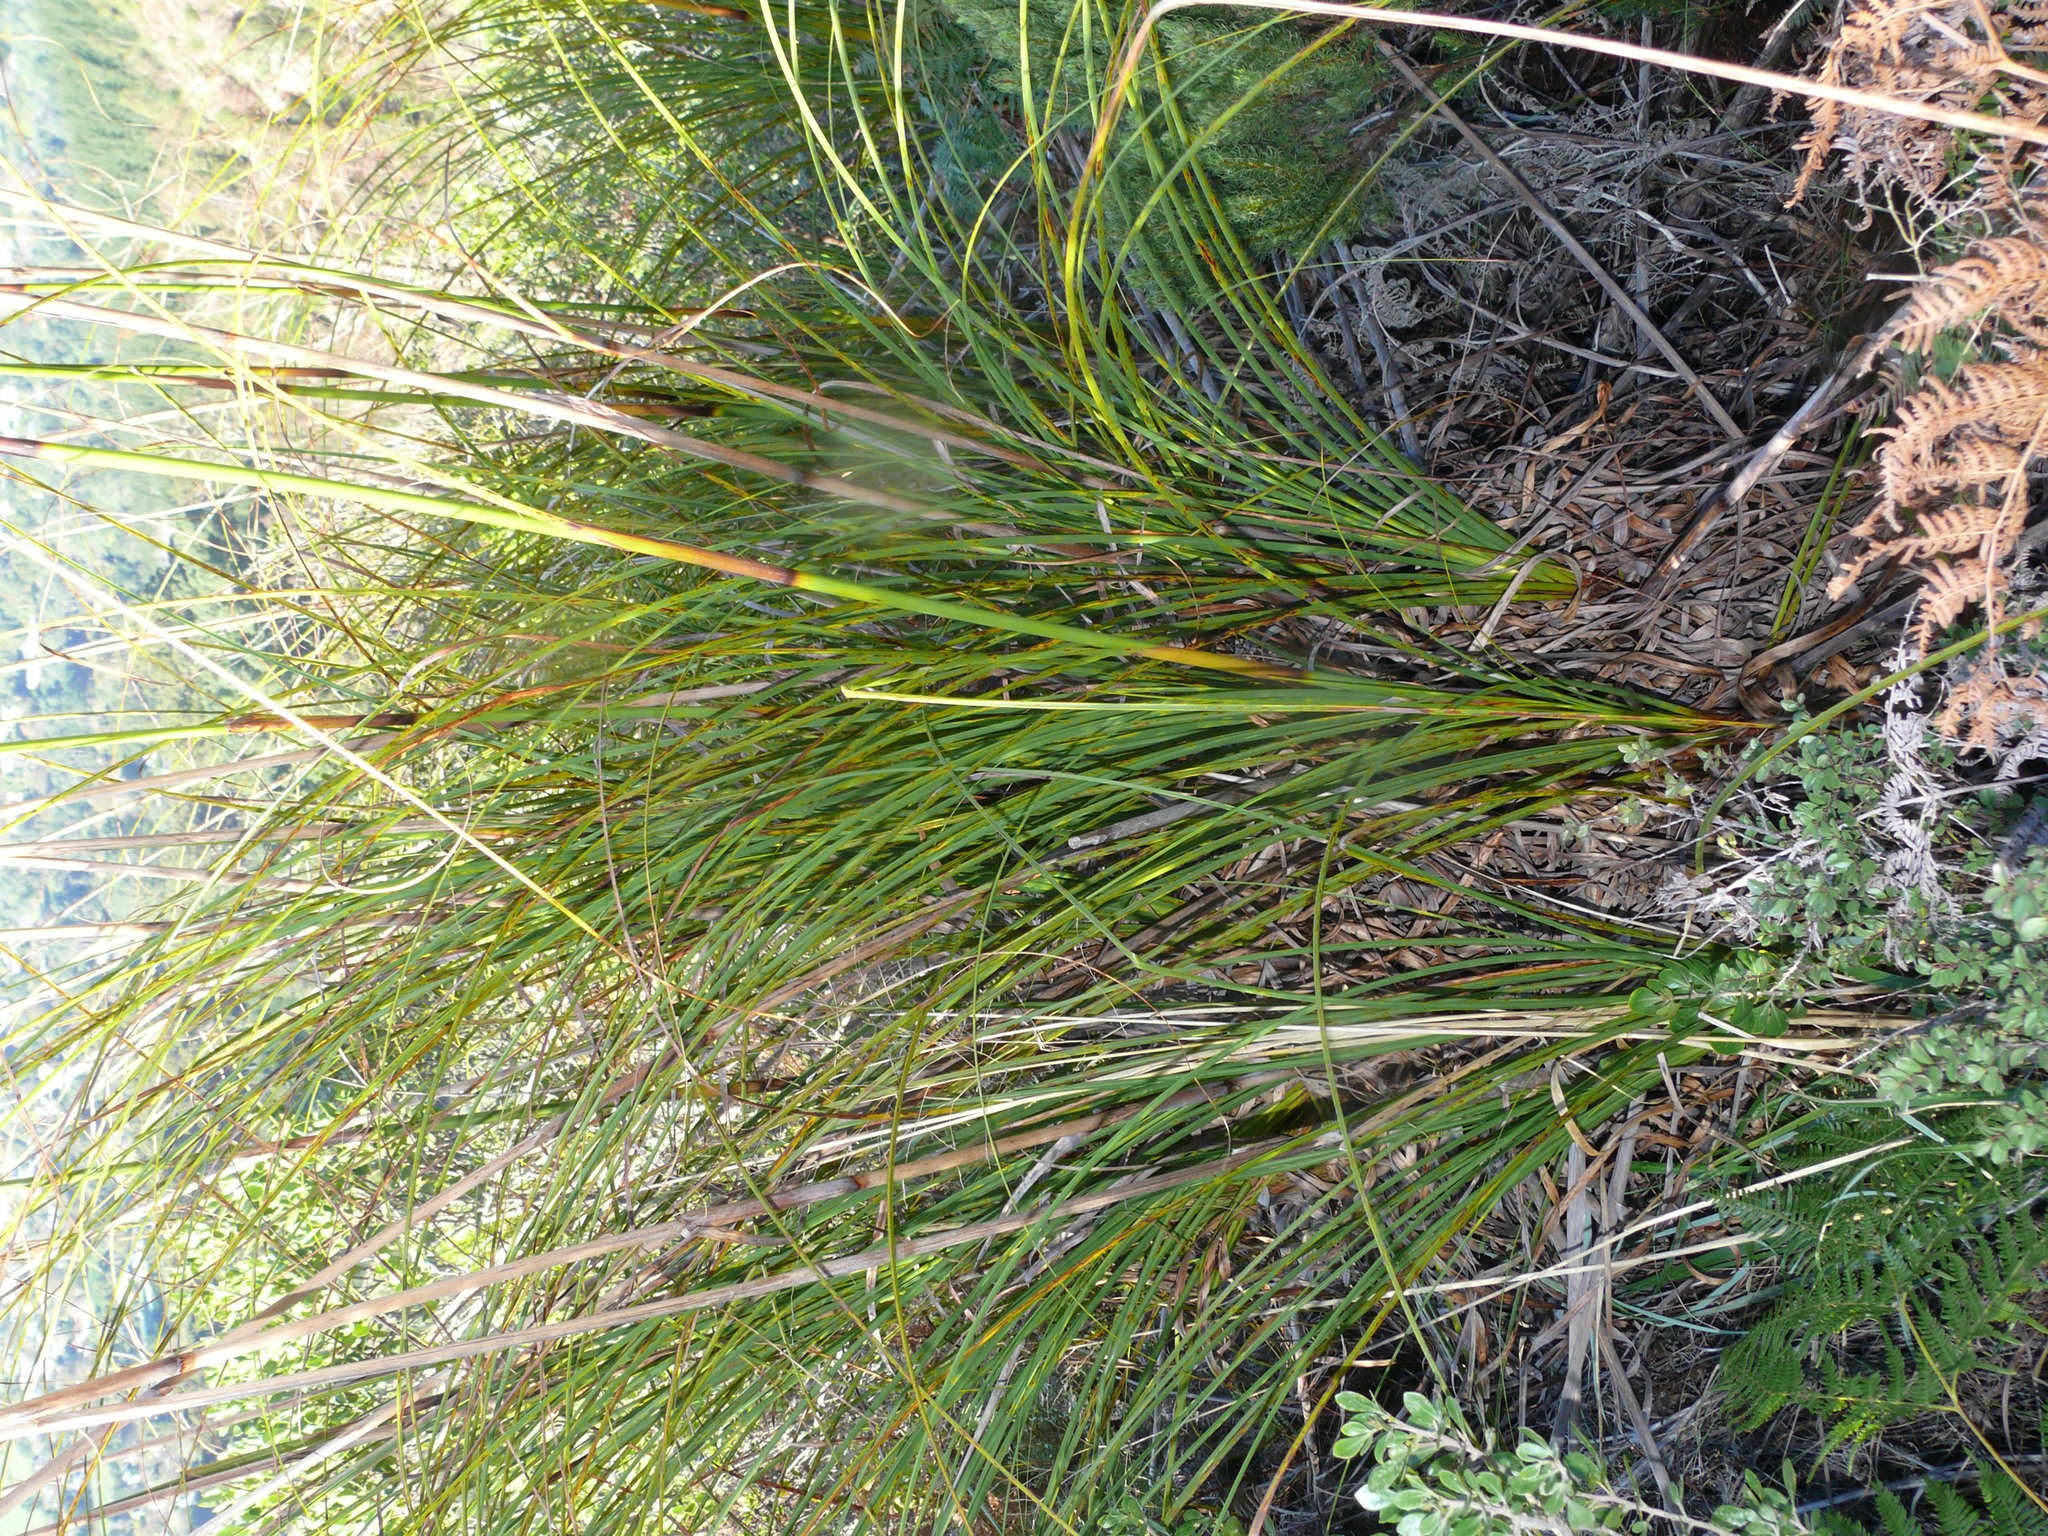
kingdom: Plantae
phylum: Tracheophyta
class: Liliopsida
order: Poales
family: Cyperaceae
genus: Tetraria
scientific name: Tetraria involucrata
